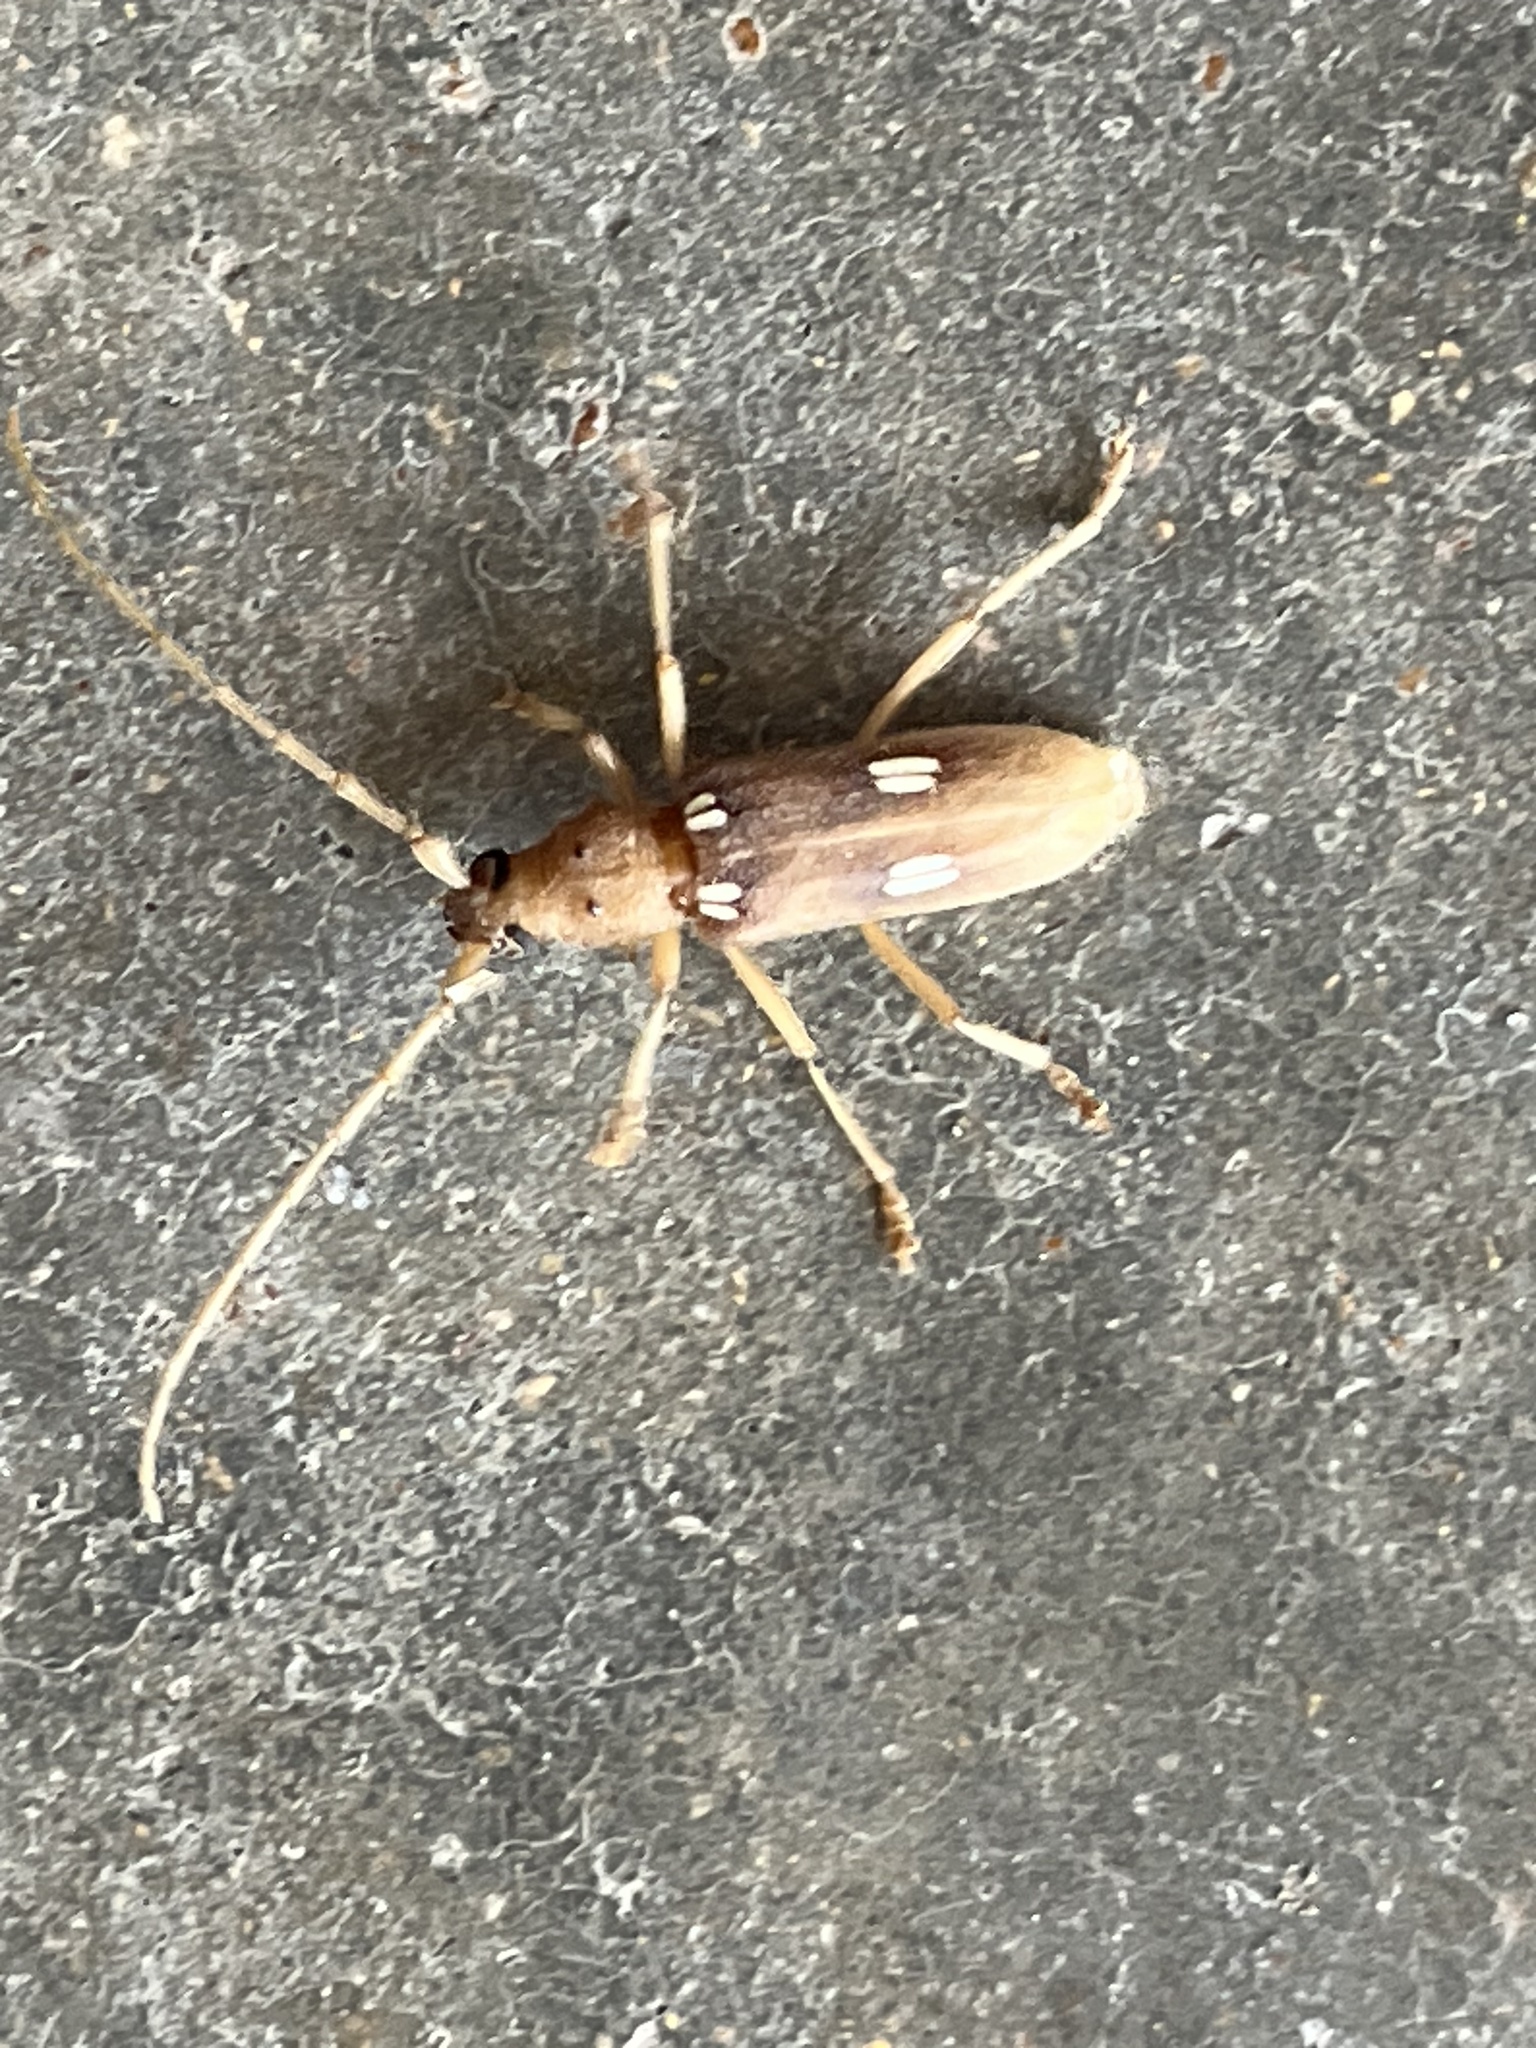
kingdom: Animalia
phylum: Arthropoda
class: Insecta
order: Coleoptera
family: Cerambycidae
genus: Eburia
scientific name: Eburia quadrigeminata
